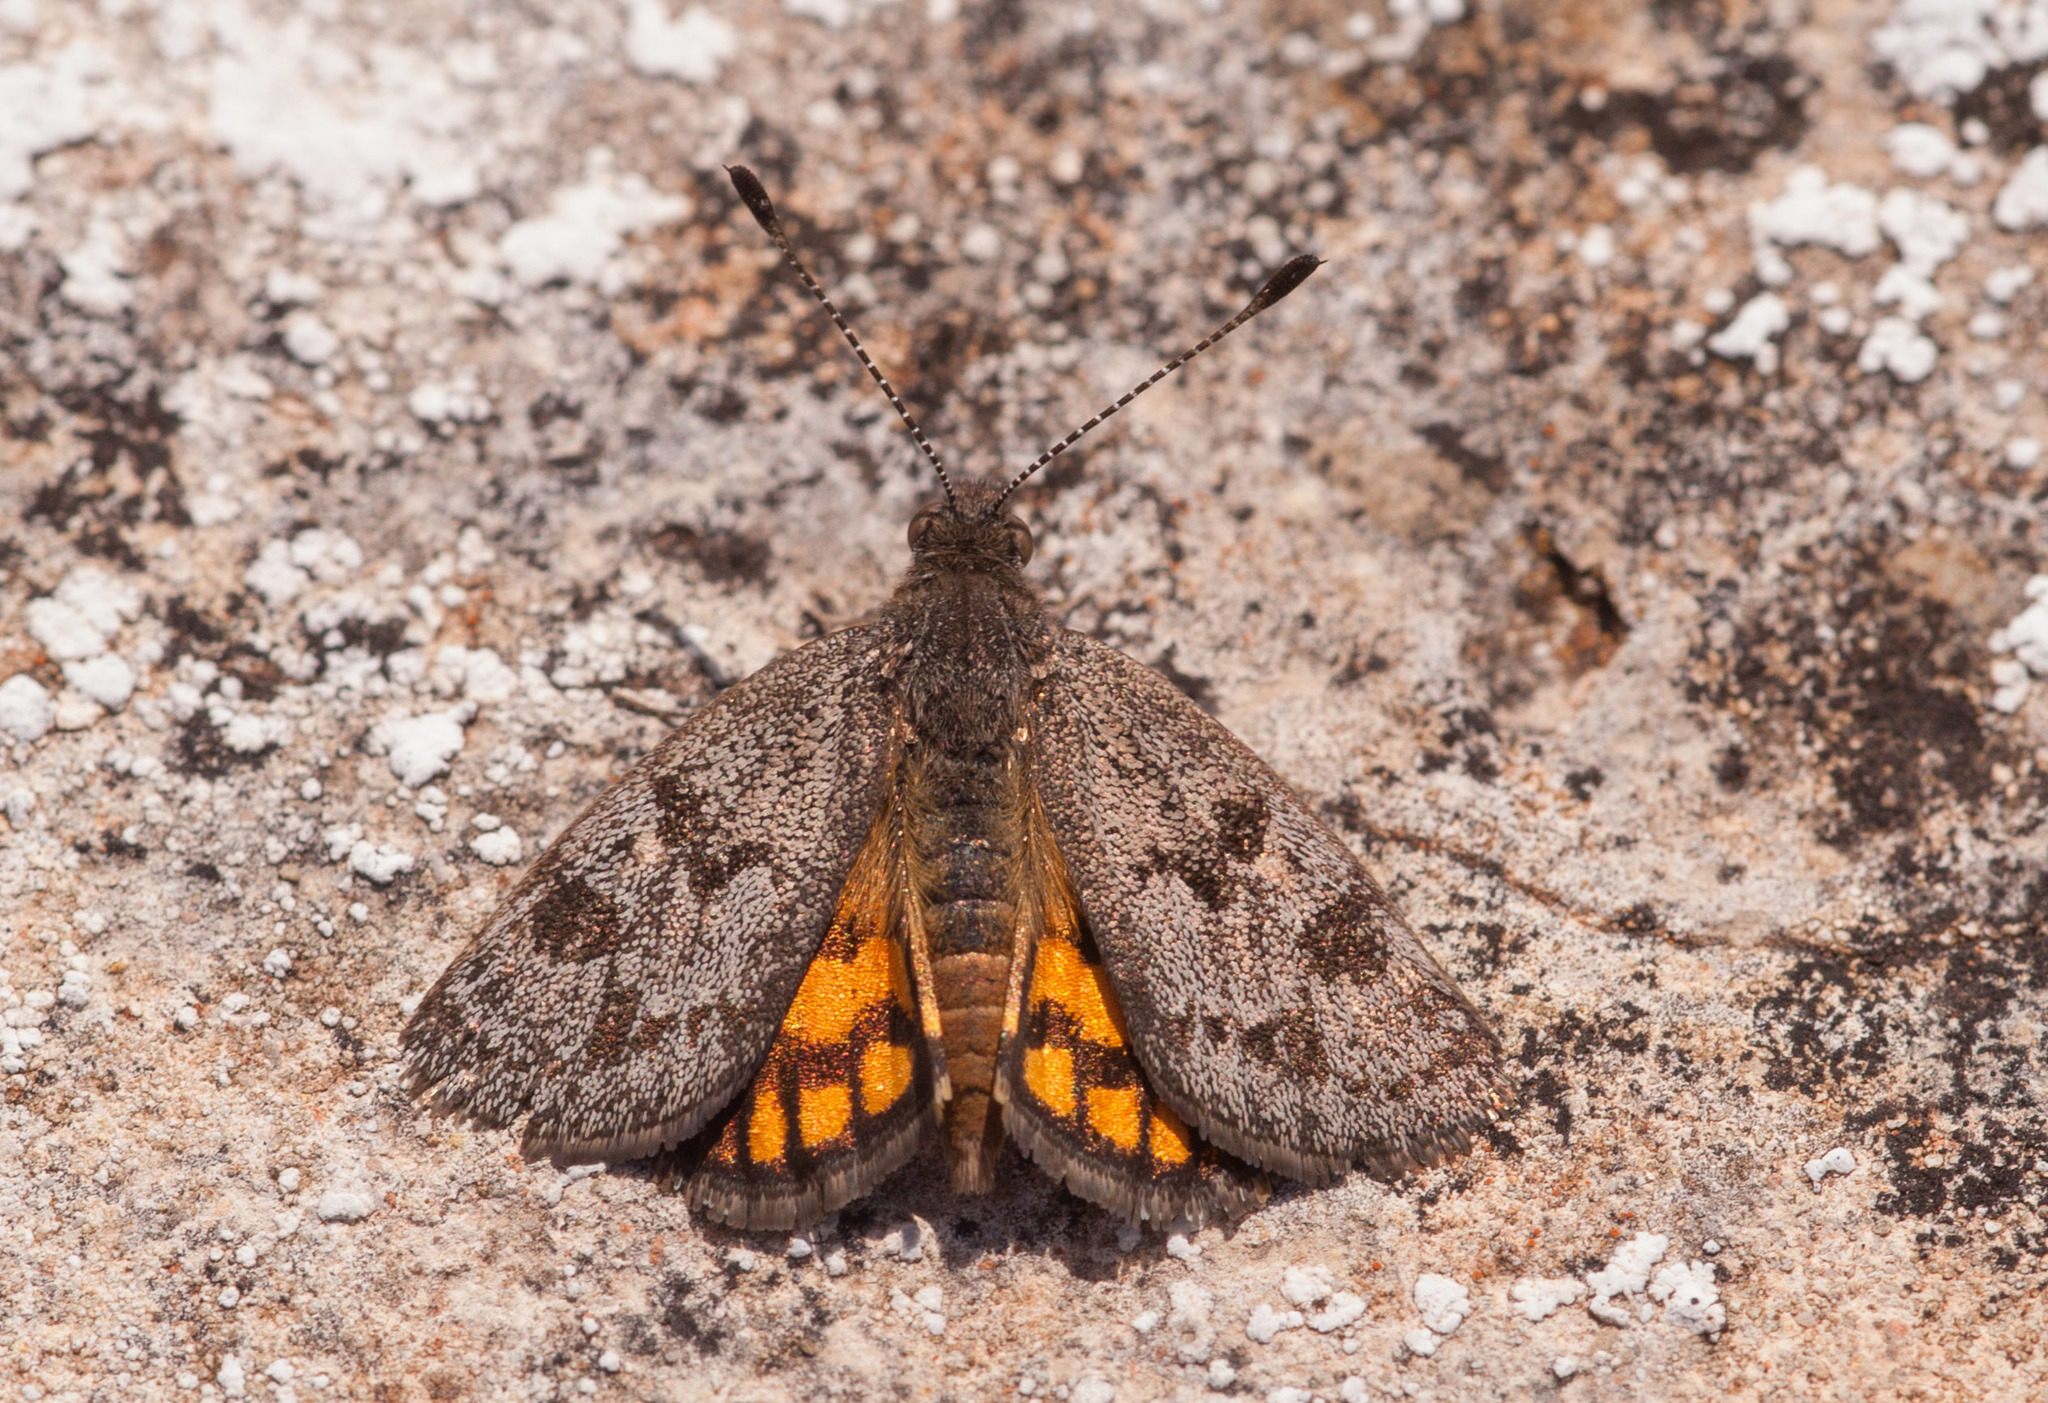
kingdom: Animalia
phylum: Arthropoda
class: Insecta
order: Lepidoptera
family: Castniidae
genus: Synemon
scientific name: Synemon discalis
